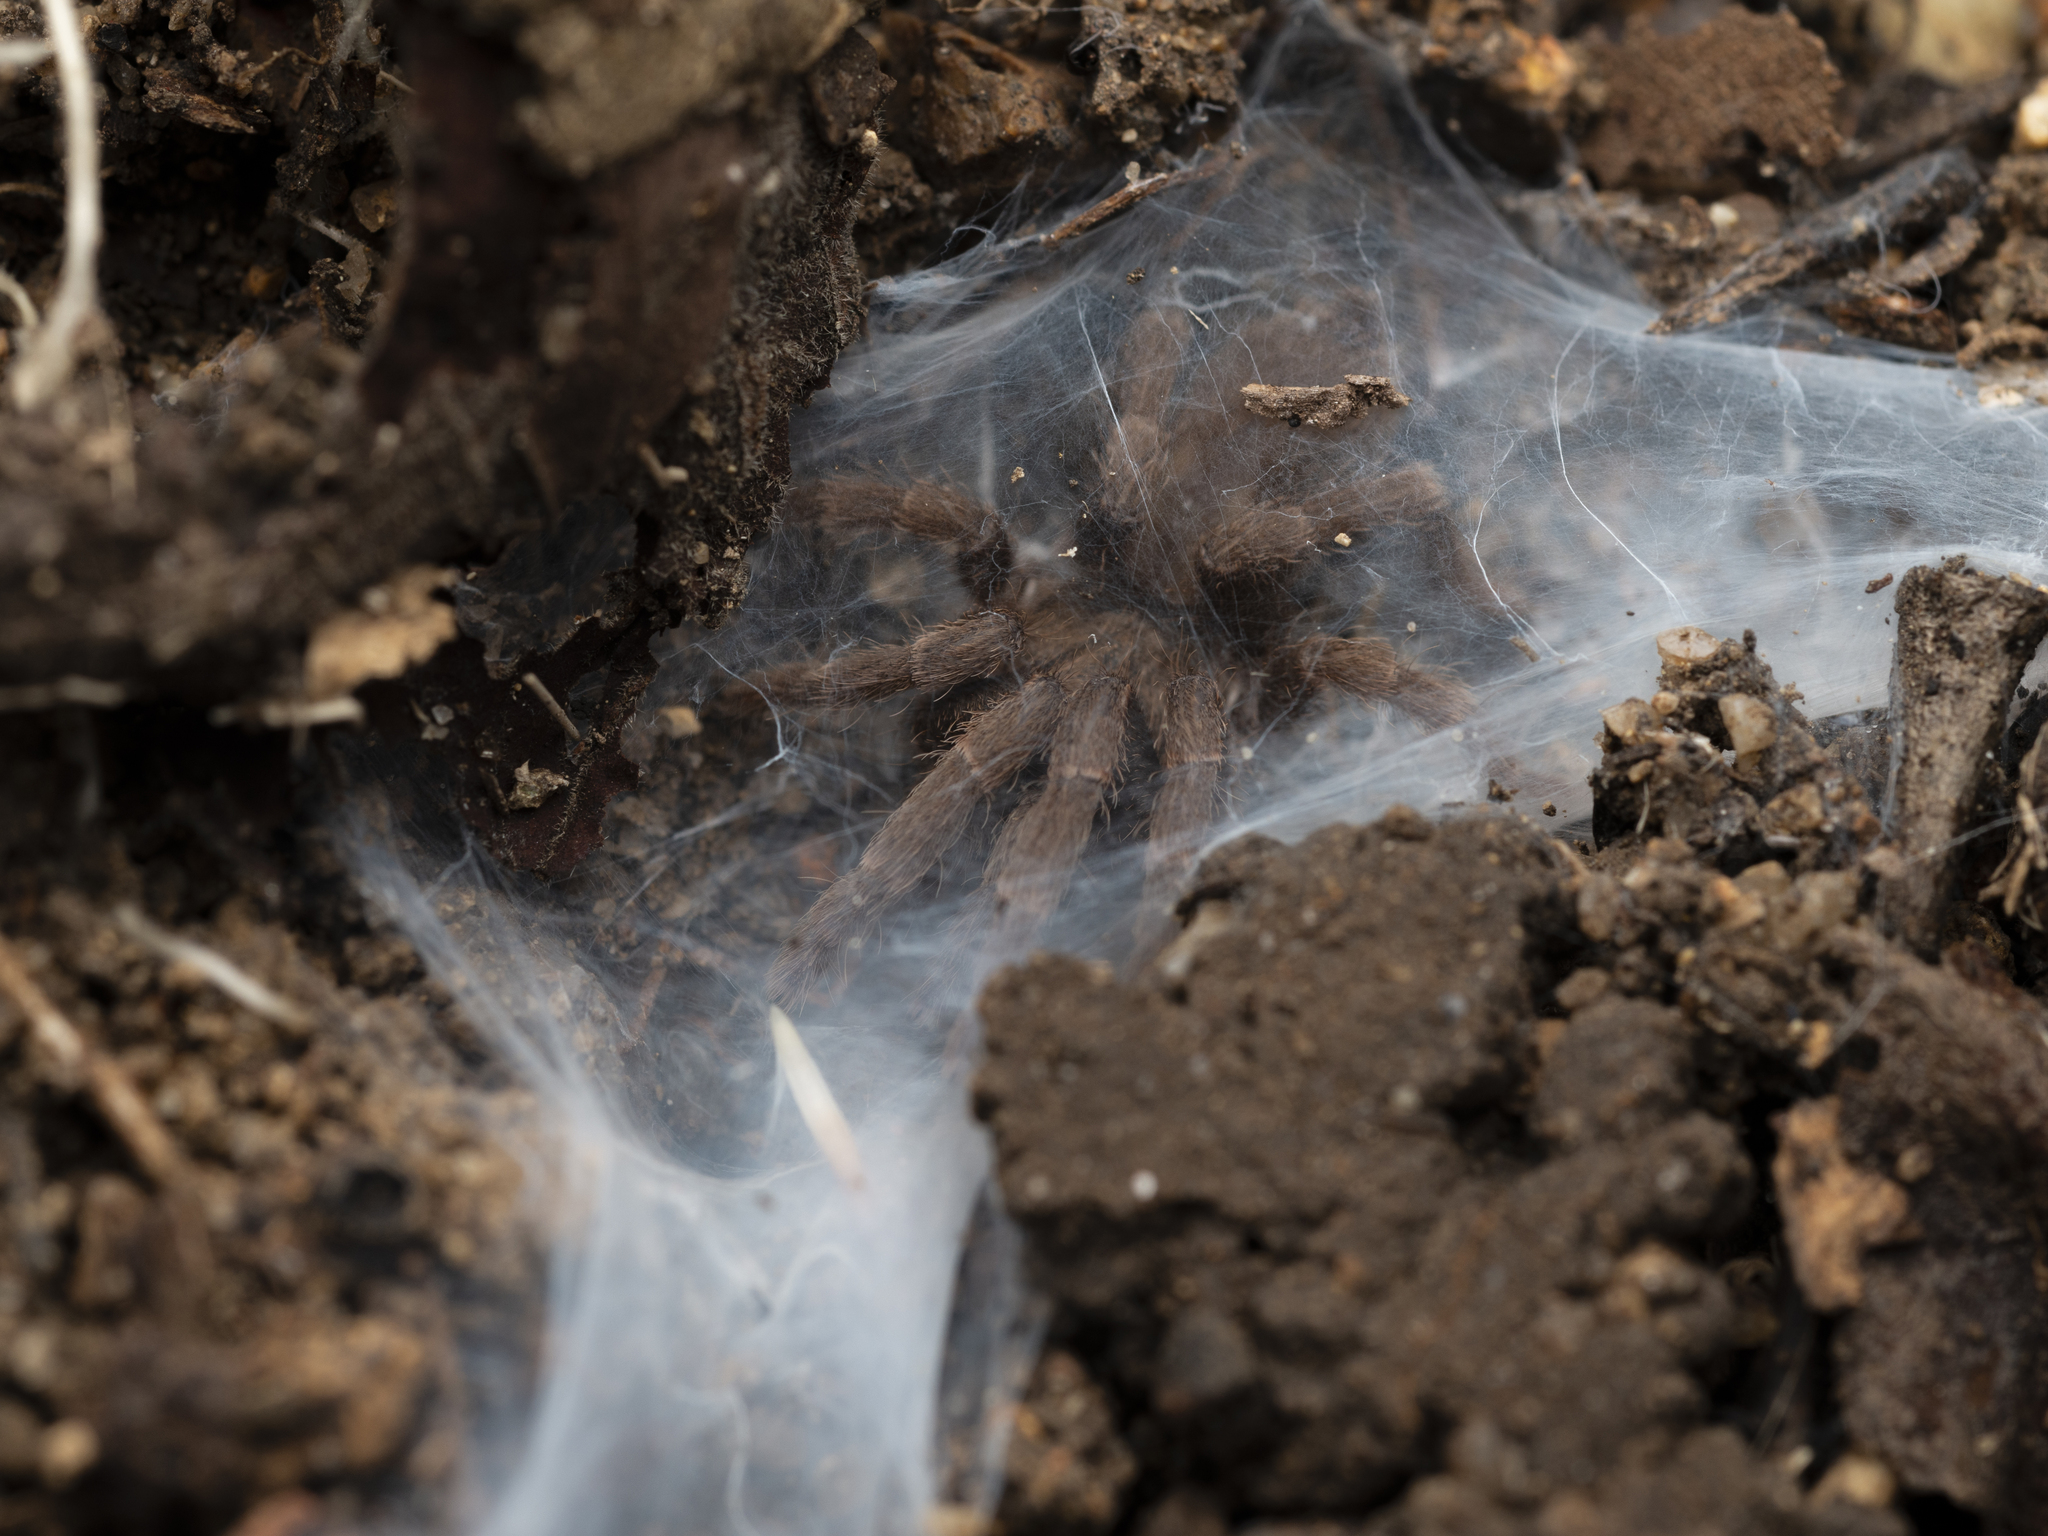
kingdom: Animalia
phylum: Arthropoda
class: Arachnida
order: Araneae
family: Theraphosidae
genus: Phlogiellus
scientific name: Phlogiellus
